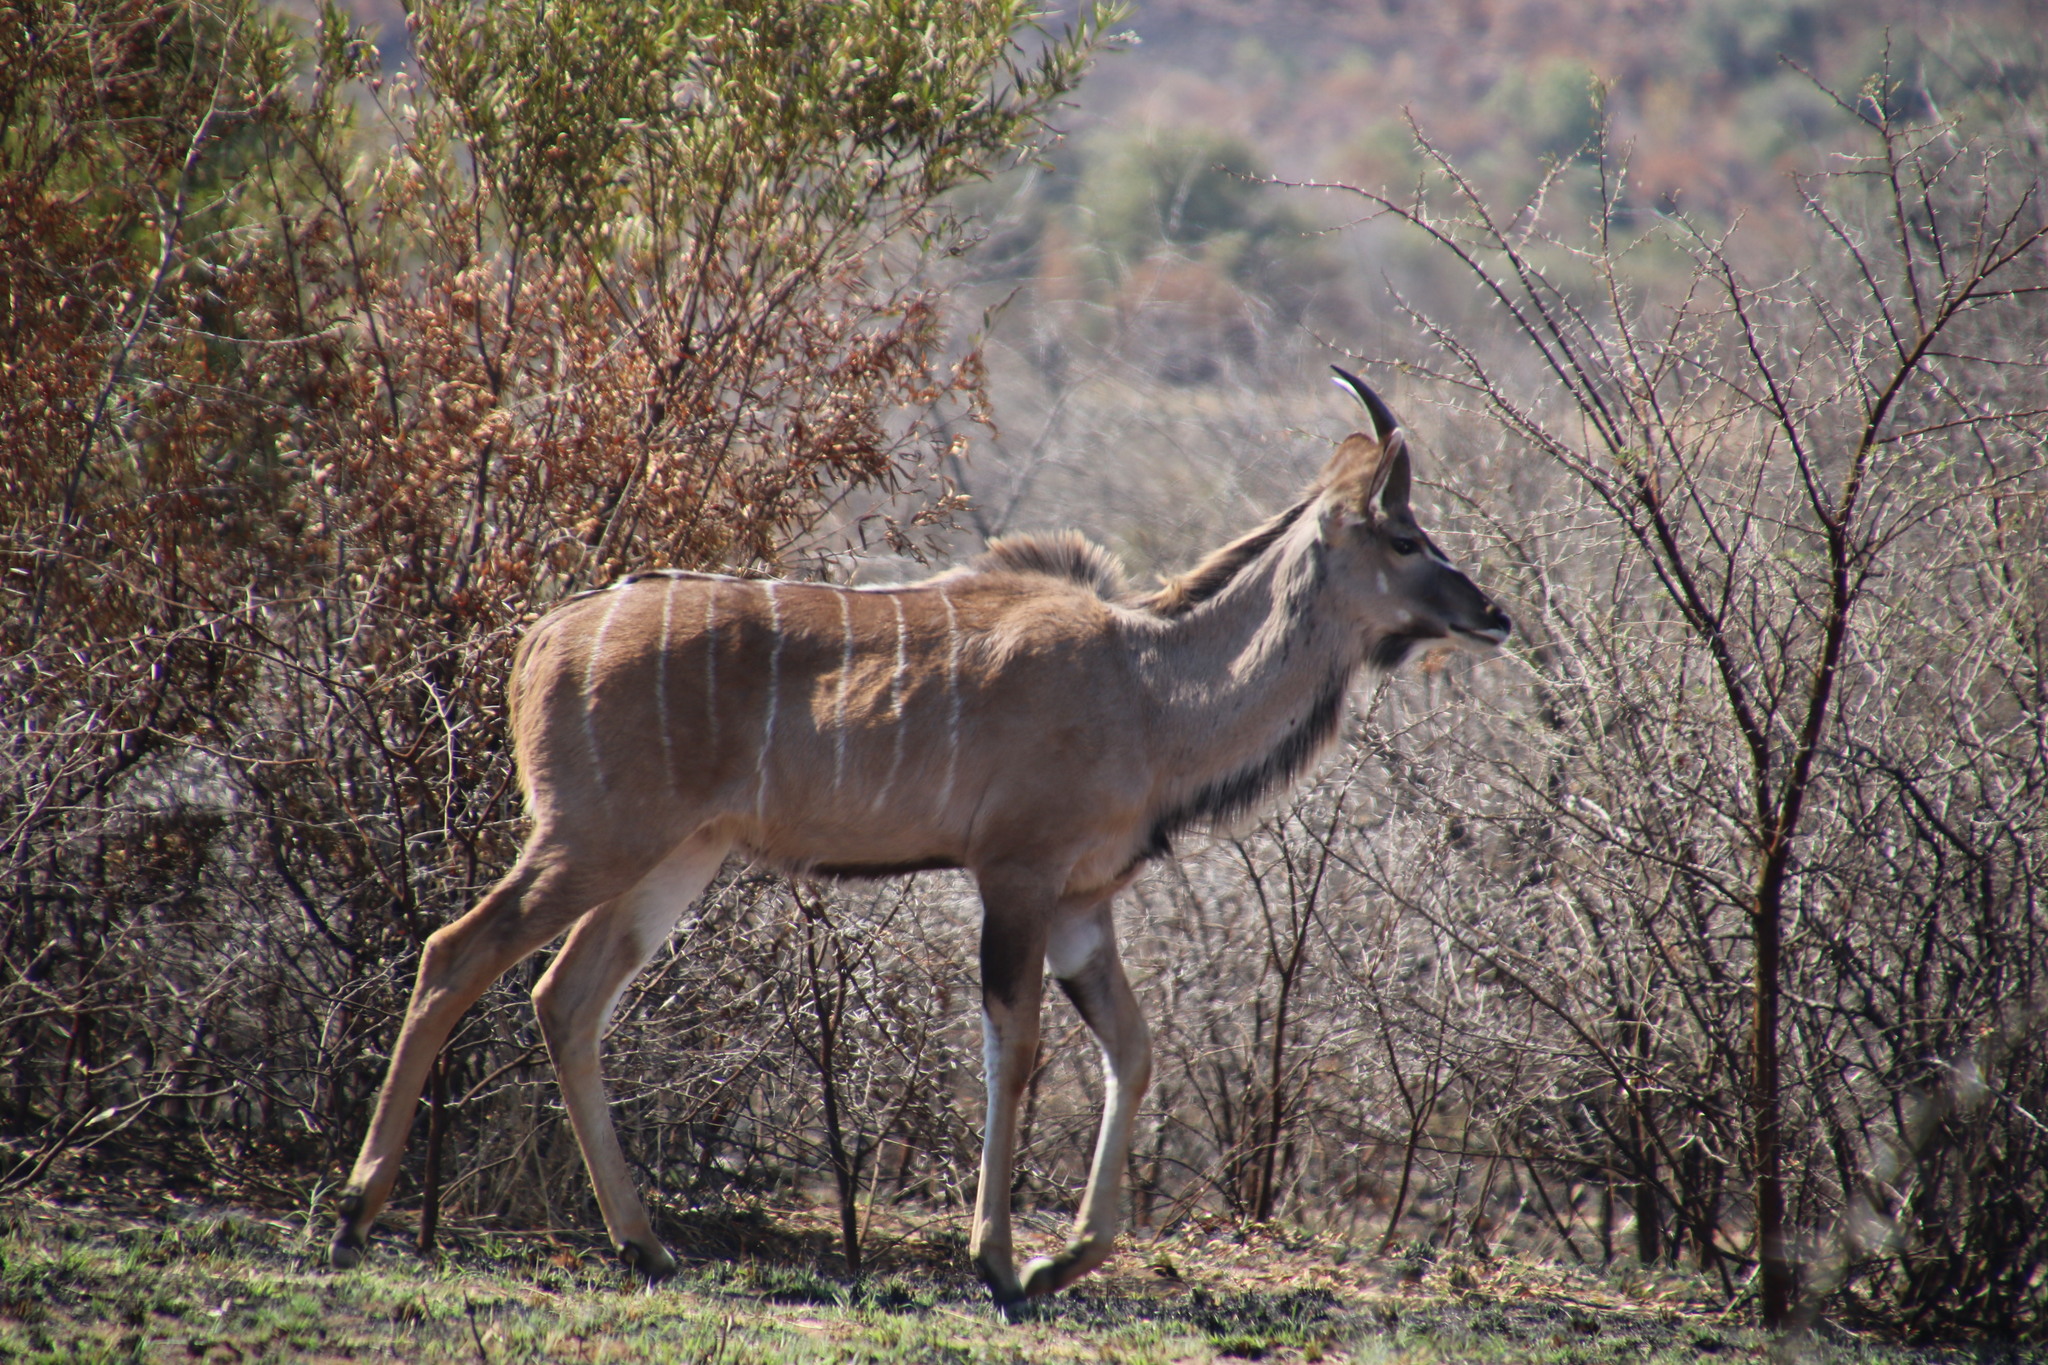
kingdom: Animalia
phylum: Chordata
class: Mammalia
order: Artiodactyla
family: Bovidae
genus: Tragelaphus
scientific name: Tragelaphus strepsiceros
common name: Greater kudu
